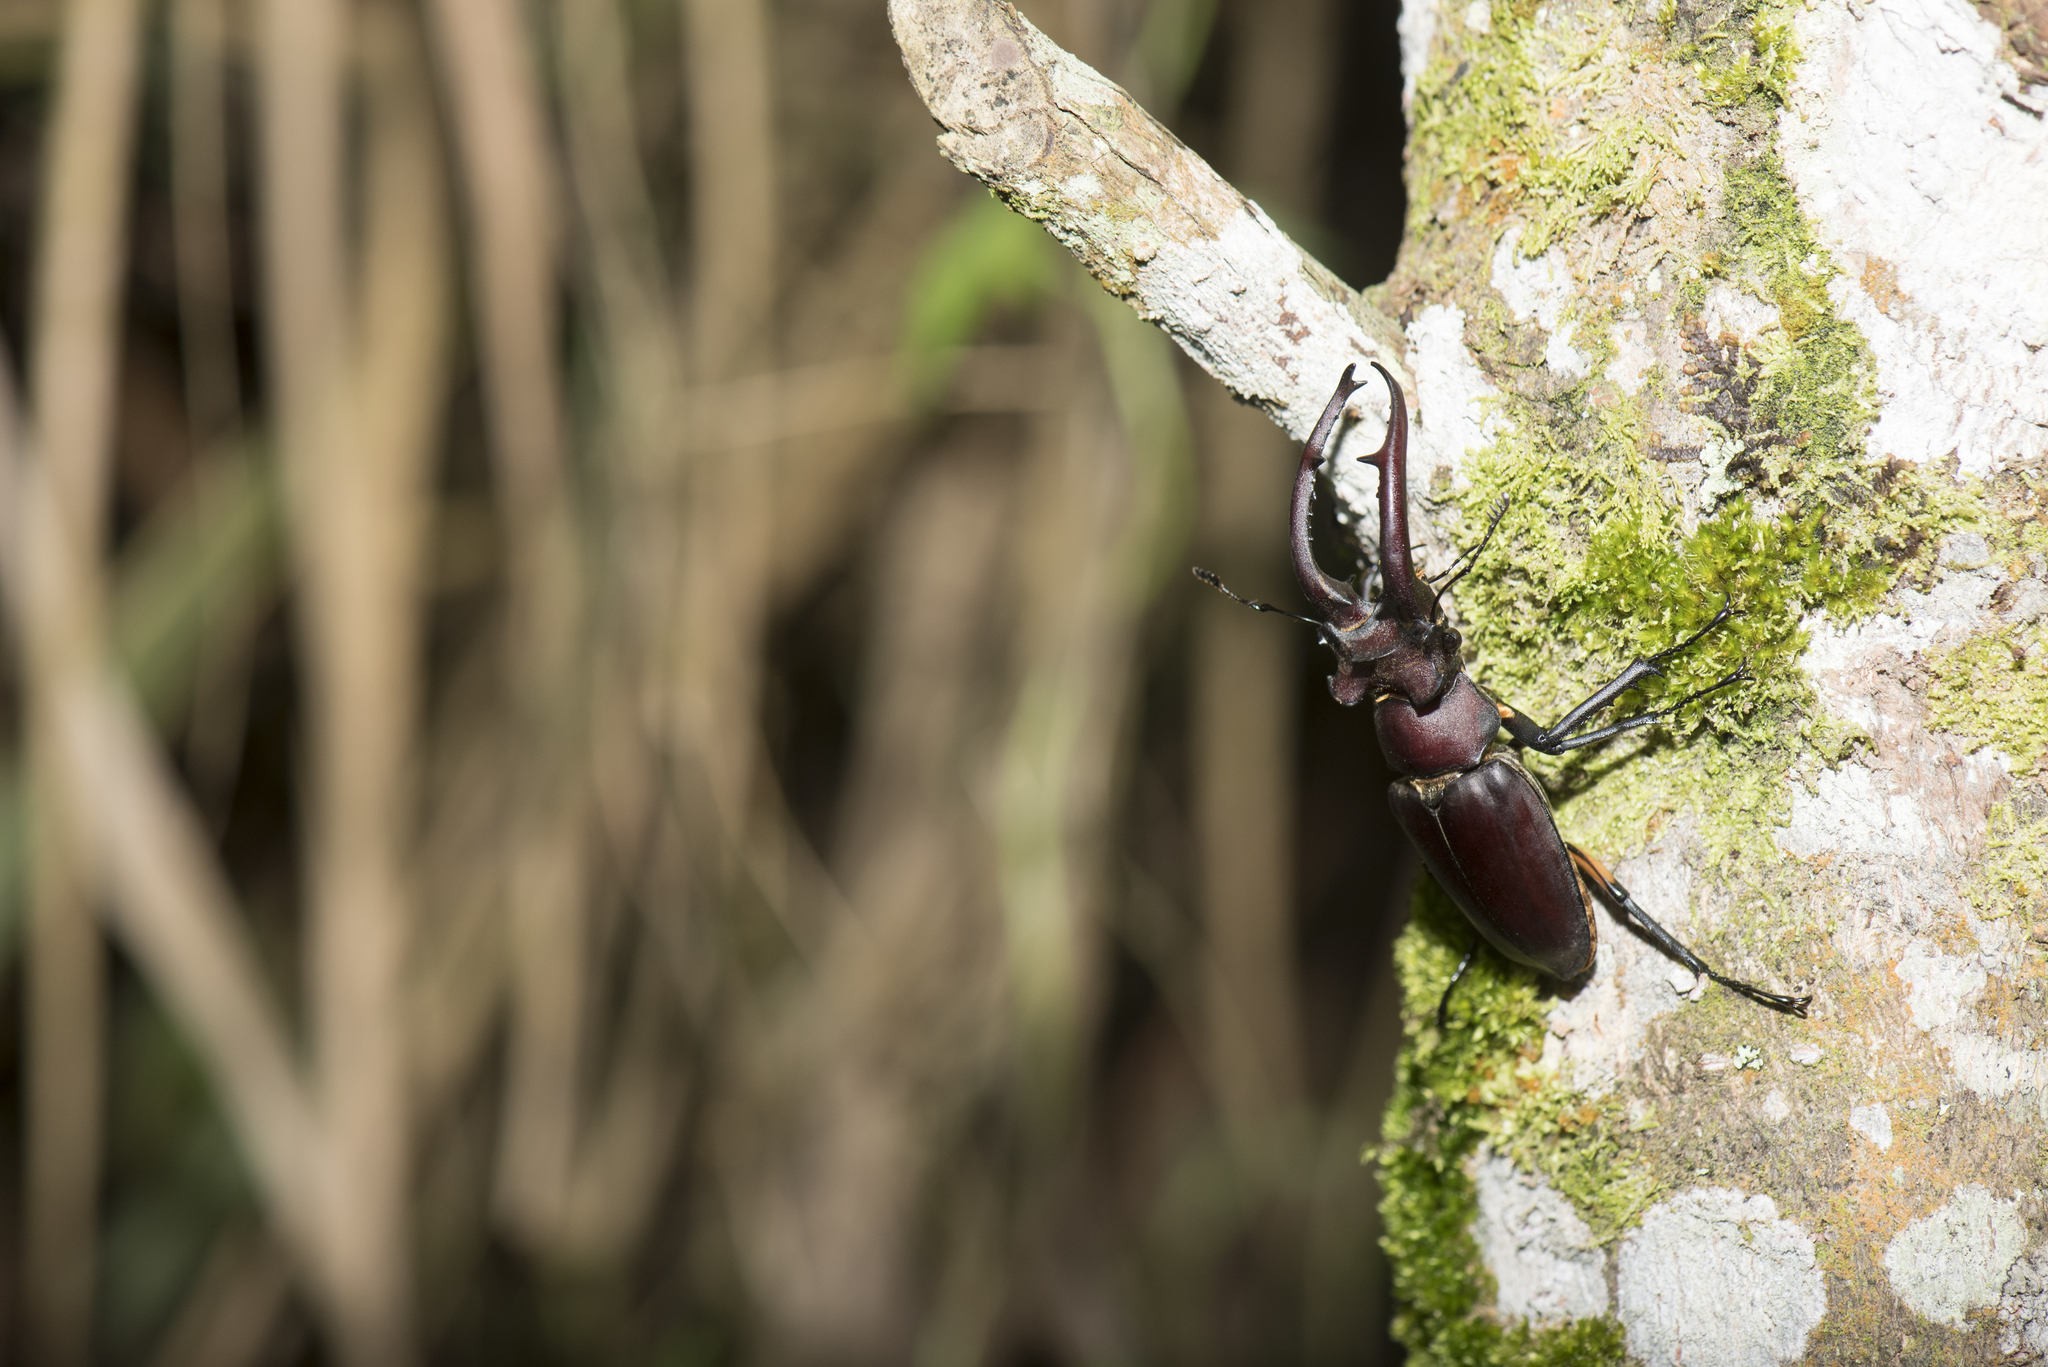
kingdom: Animalia
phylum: Arthropoda
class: Insecta
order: Coleoptera
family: Lucanidae
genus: Lucanus
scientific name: Lucanus formosanus
